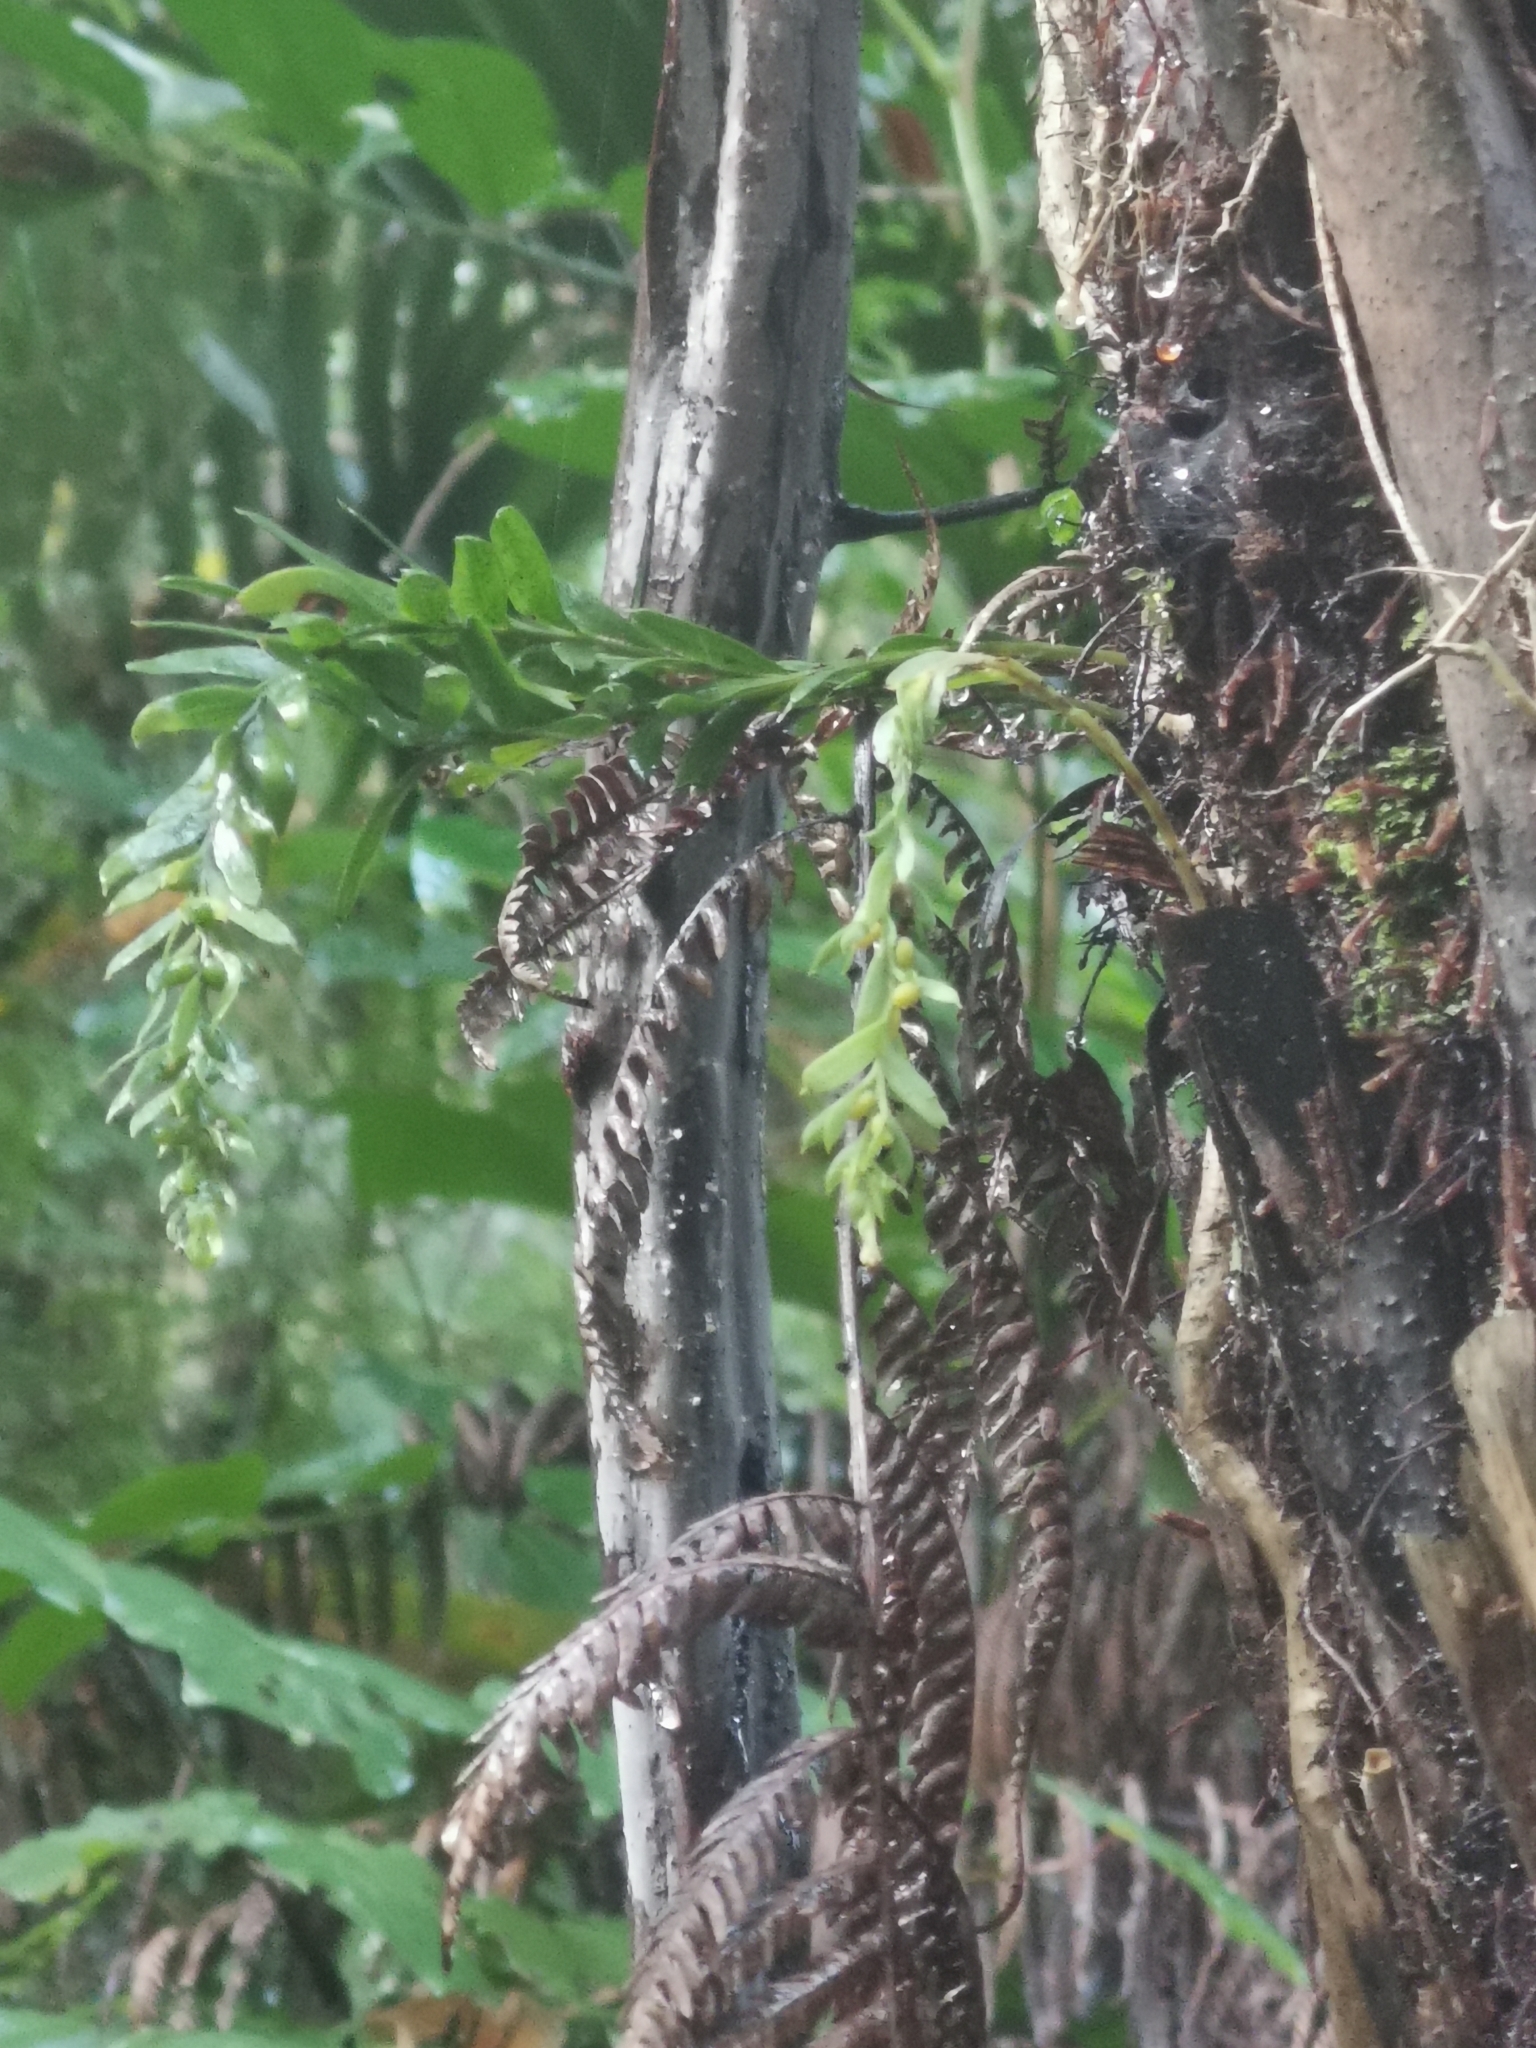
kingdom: Plantae
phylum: Tracheophyta
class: Polypodiopsida
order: Psilotales
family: Psilotaceae
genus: Tmesipteris
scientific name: Tmesipteris lanceolata
